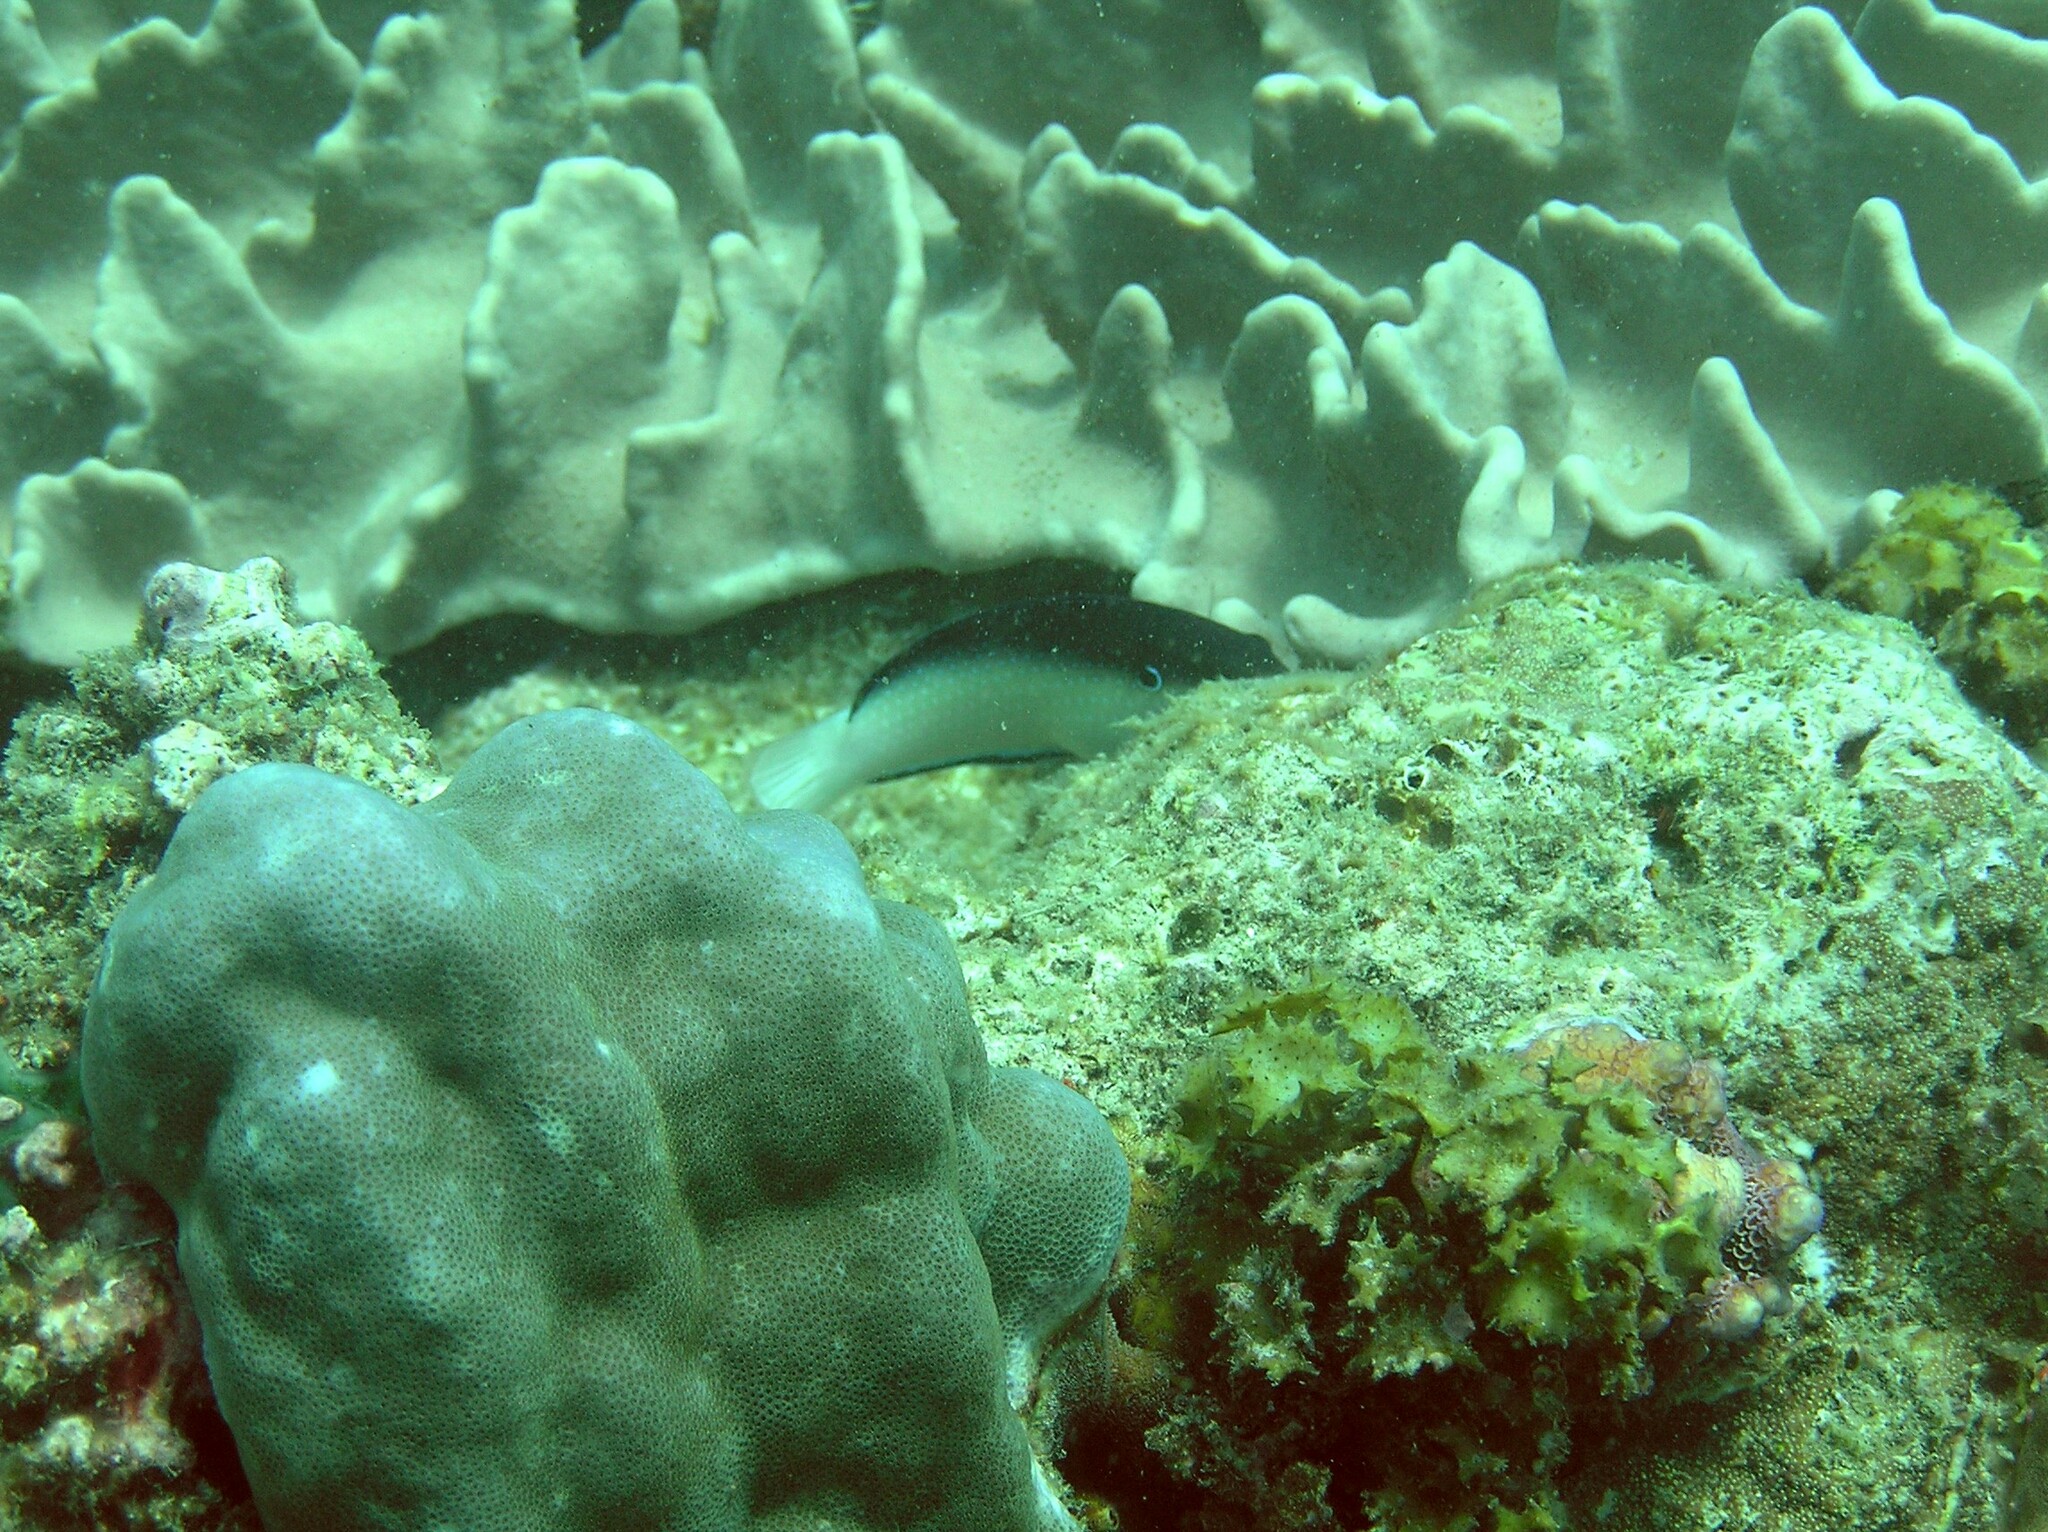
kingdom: Animalia
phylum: Chordata
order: Perciformes
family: Labridae
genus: Anampses
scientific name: Anampses neoguinaicus
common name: New guinea wrasse
